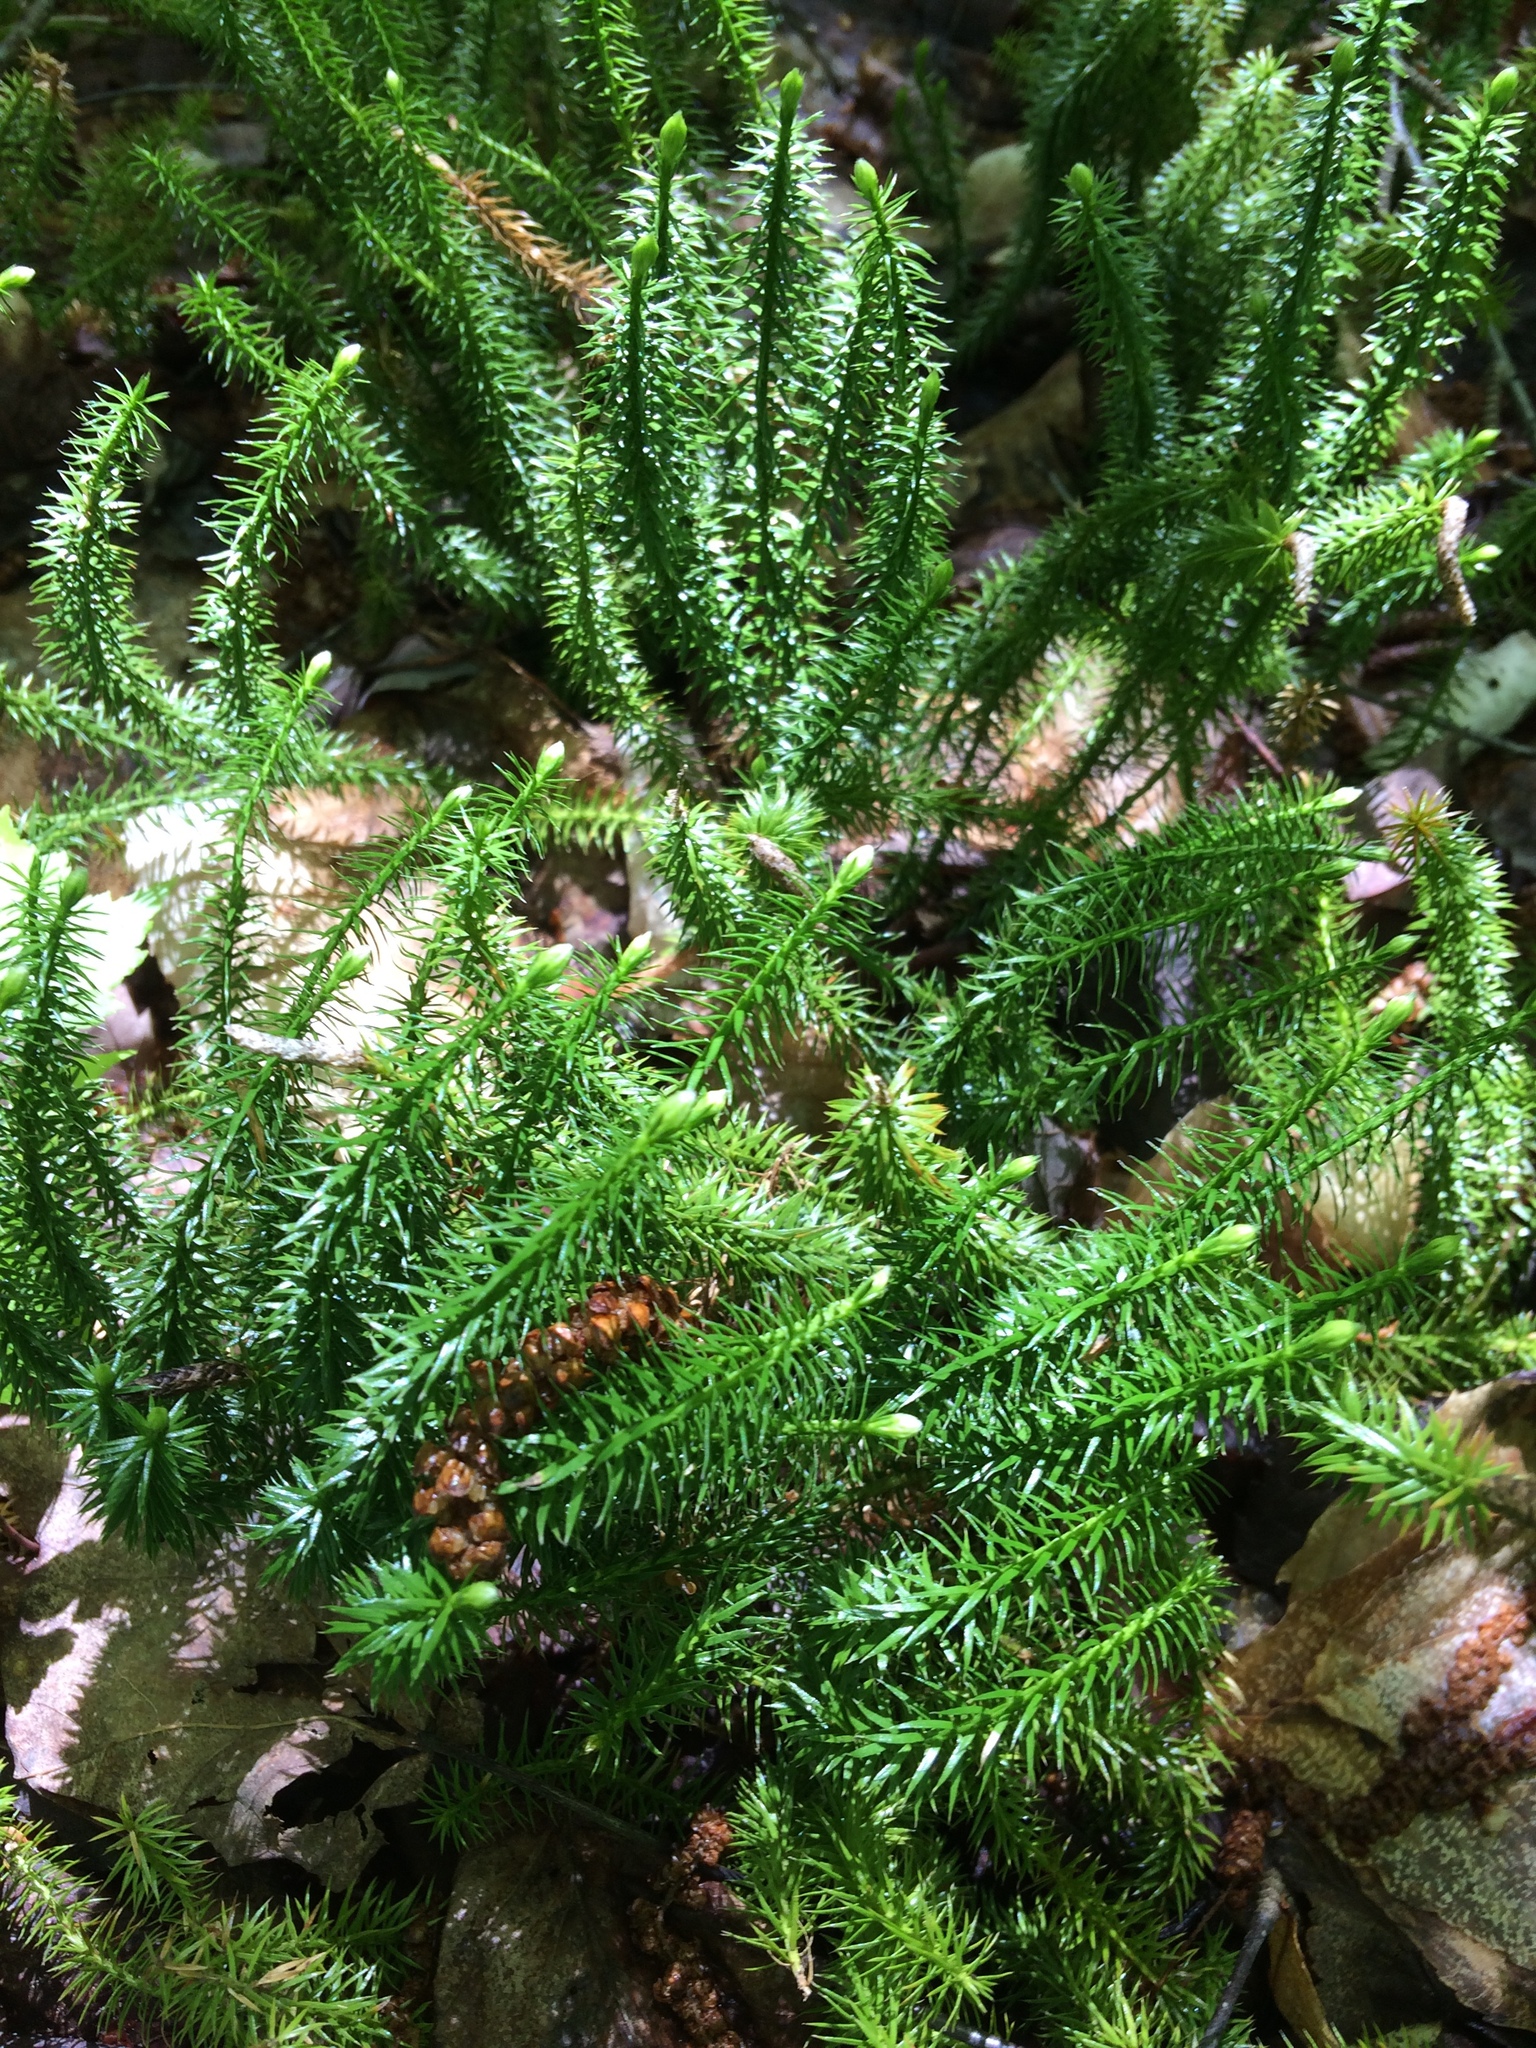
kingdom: Plantae
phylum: Tracheophyta
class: Lycopodiopsida
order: Lycopodiales
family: Lycopodiaceae
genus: Spinulum
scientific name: Spinulum annotinum
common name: Interrupted club-moss
